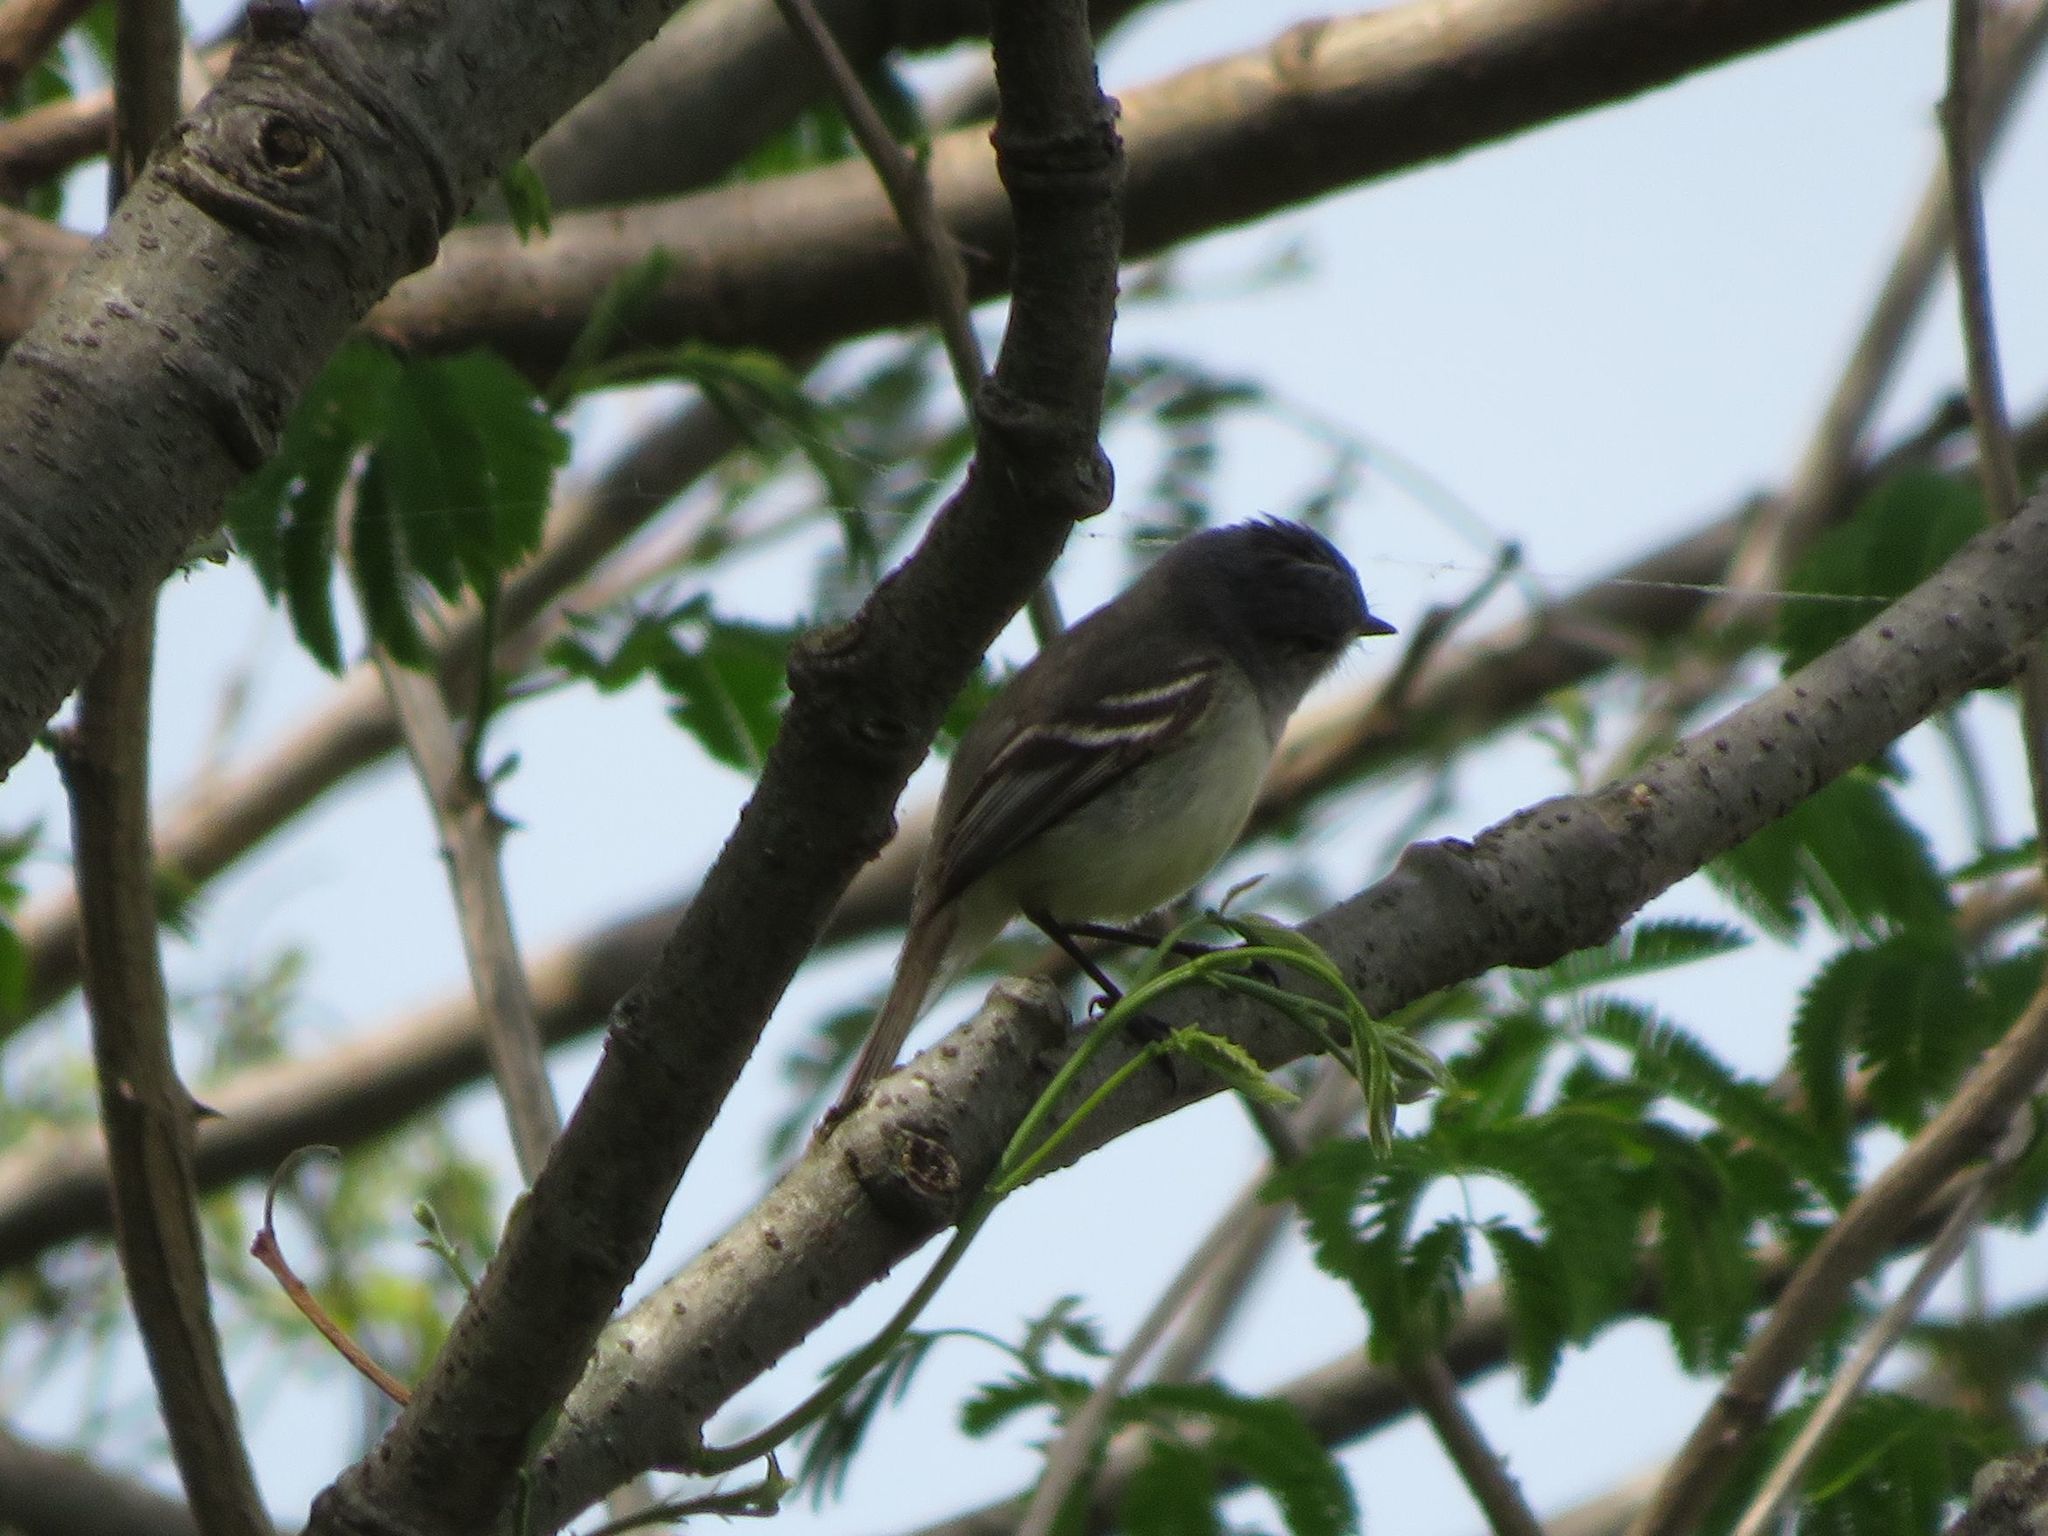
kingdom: Animalia
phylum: Chordata
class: Aves
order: Passeriformes
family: Tyrannidae
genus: Serpophaga
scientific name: Serpophaga subcristata
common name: White-crested tyrannulet
